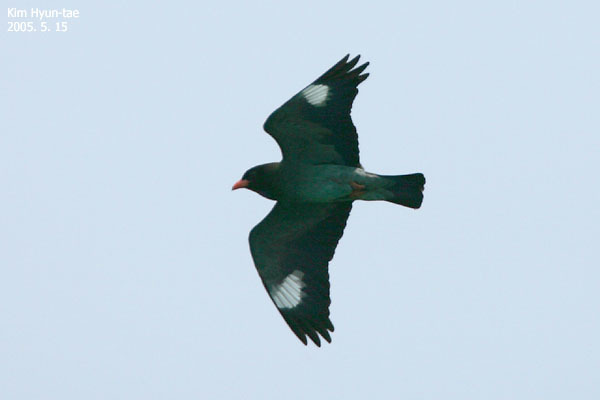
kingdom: Animalia
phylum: Chordata
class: Aves
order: Coraciiformes
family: Coraciidae
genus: Eurystomus
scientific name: Eurystomus orientalis
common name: Oriental dollarbird
